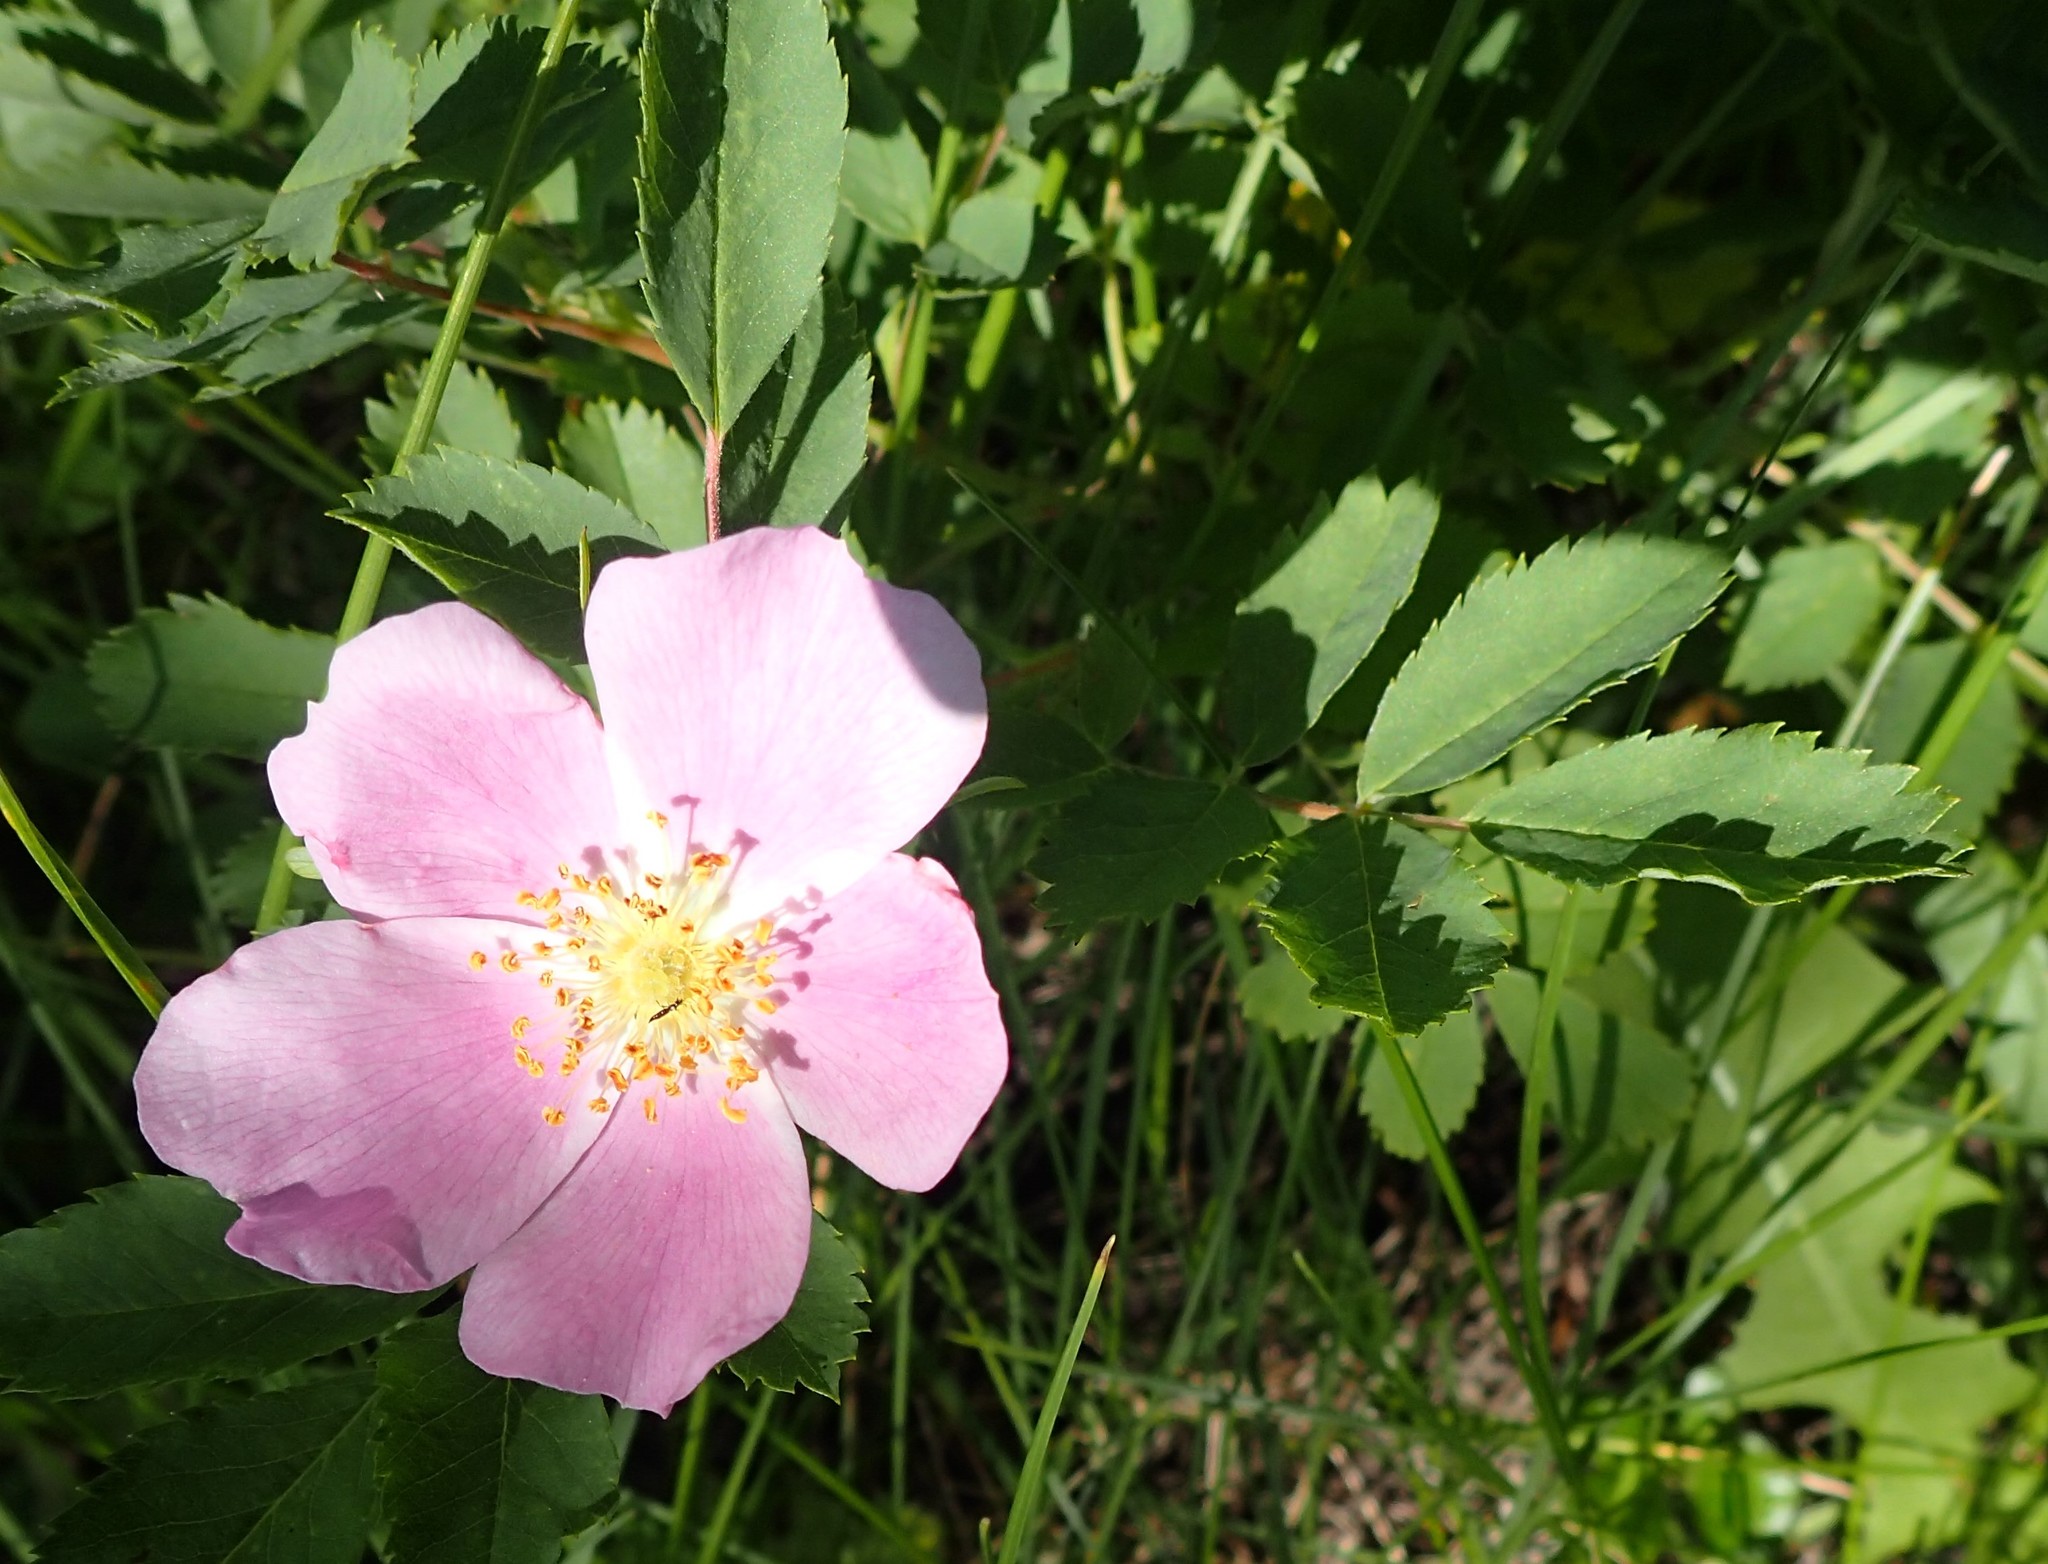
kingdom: Plantae
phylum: Tracheophyta
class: Magnoliopsida
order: Rosales
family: Rosaceae
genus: Rosa
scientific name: Rosa acicularis
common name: Prickly rose
